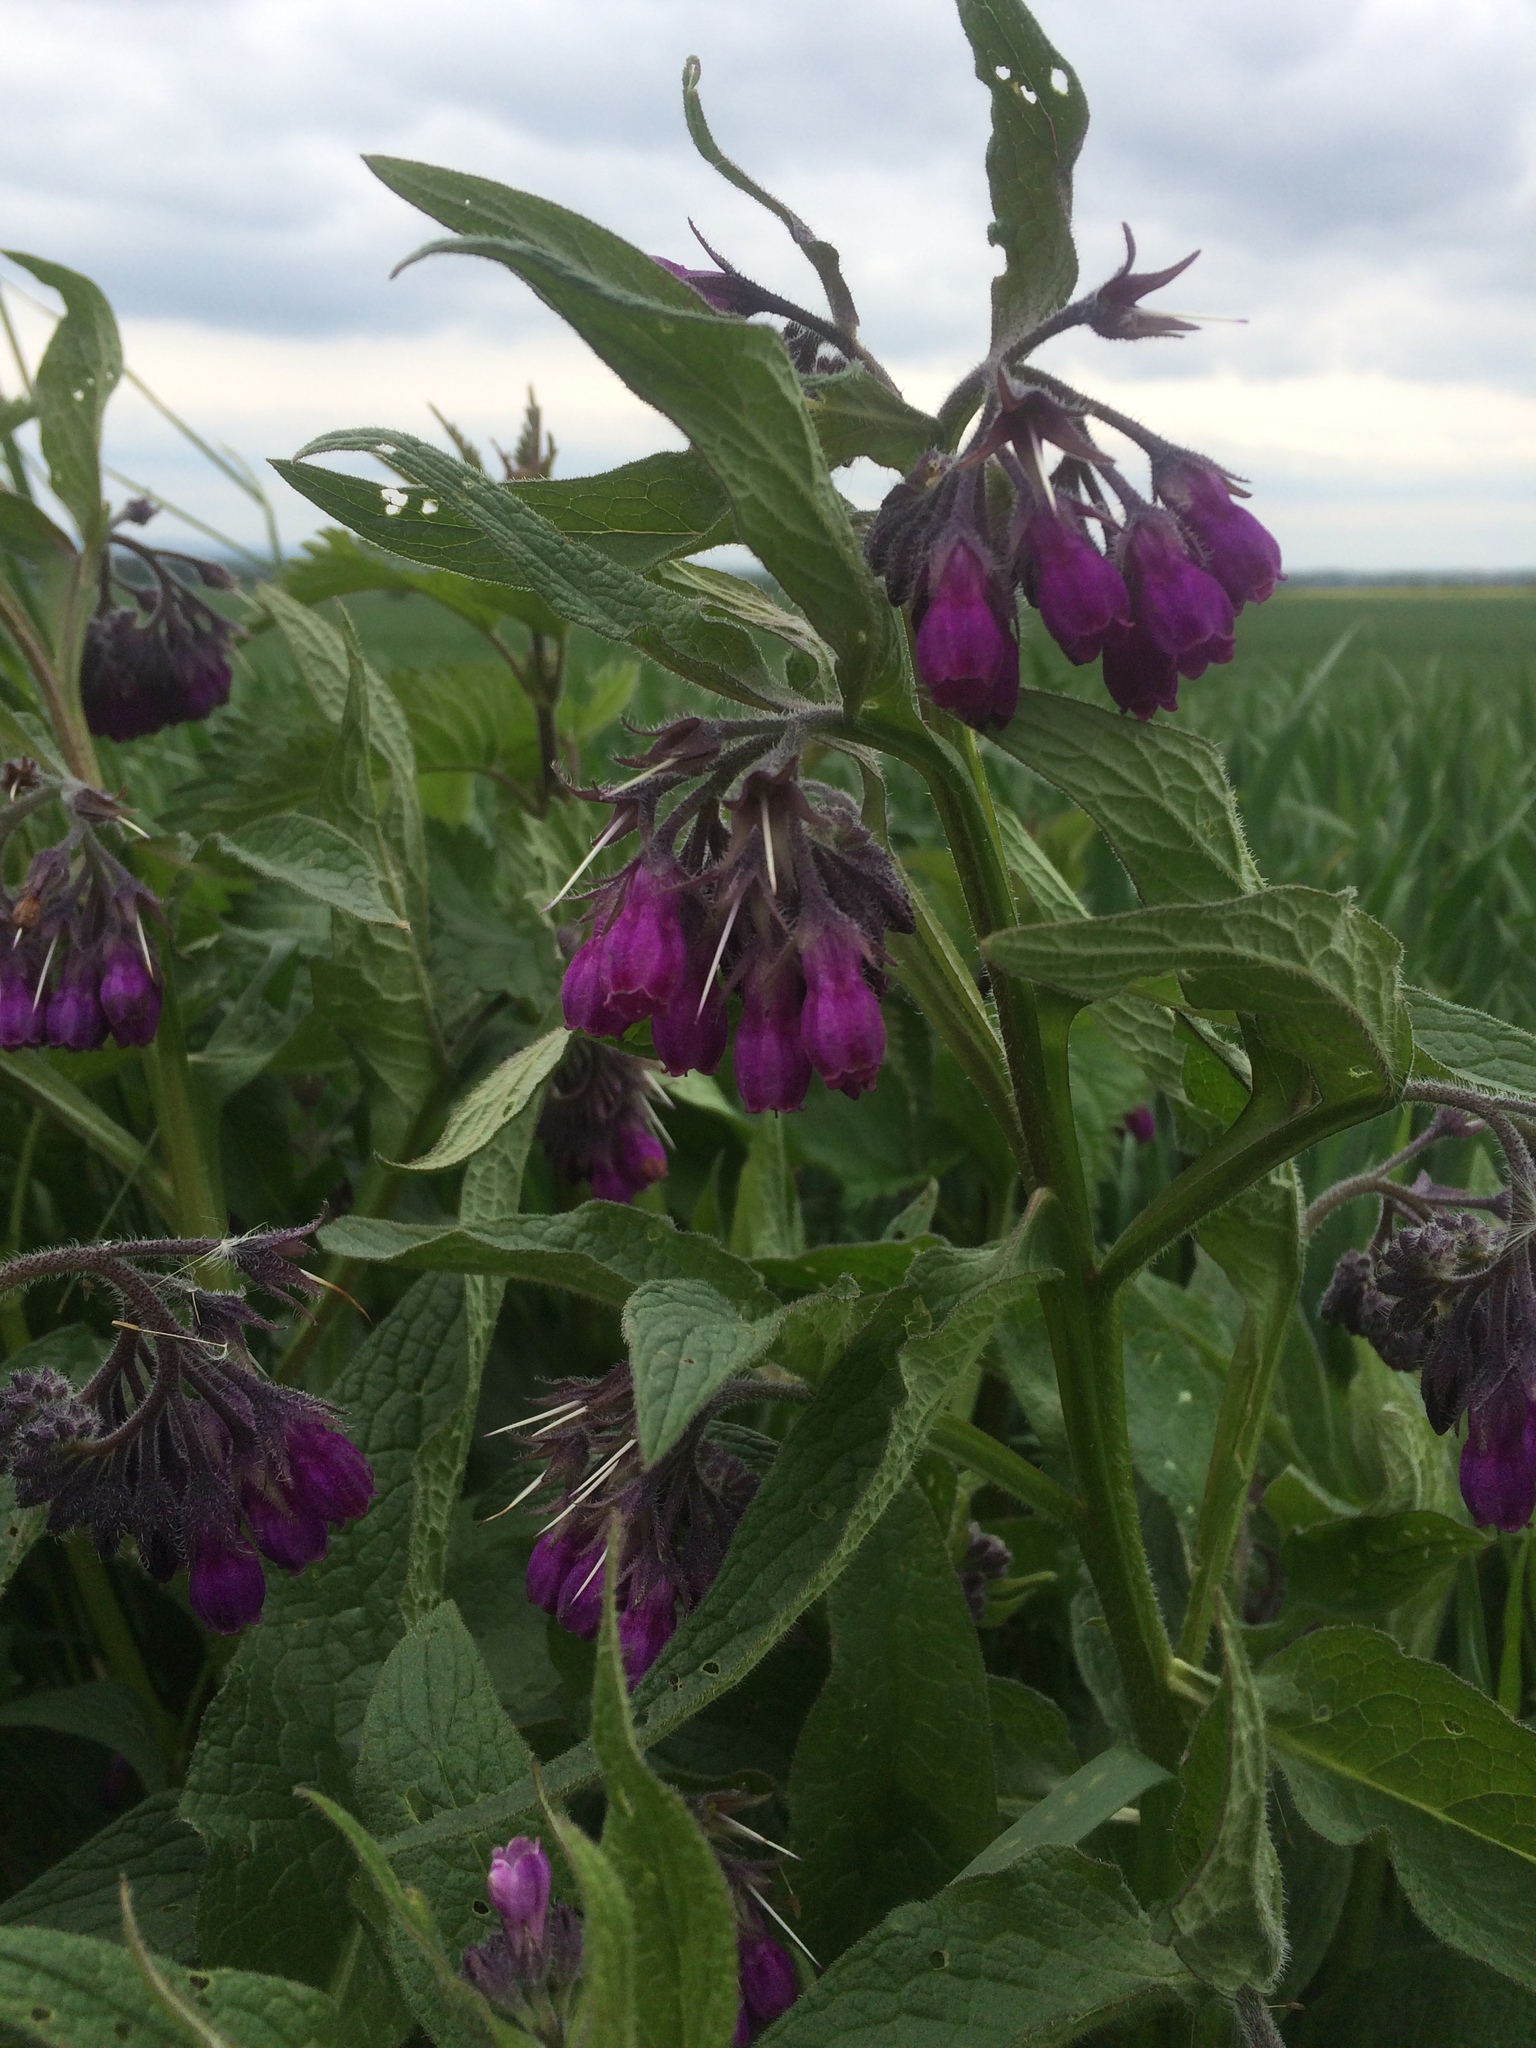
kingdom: Plantae
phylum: Tracheophyta
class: Magnoliopsida
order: Boraginales
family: Boraginaceae
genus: Symphytum
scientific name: Symphytum officinale
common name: Common comfrey
